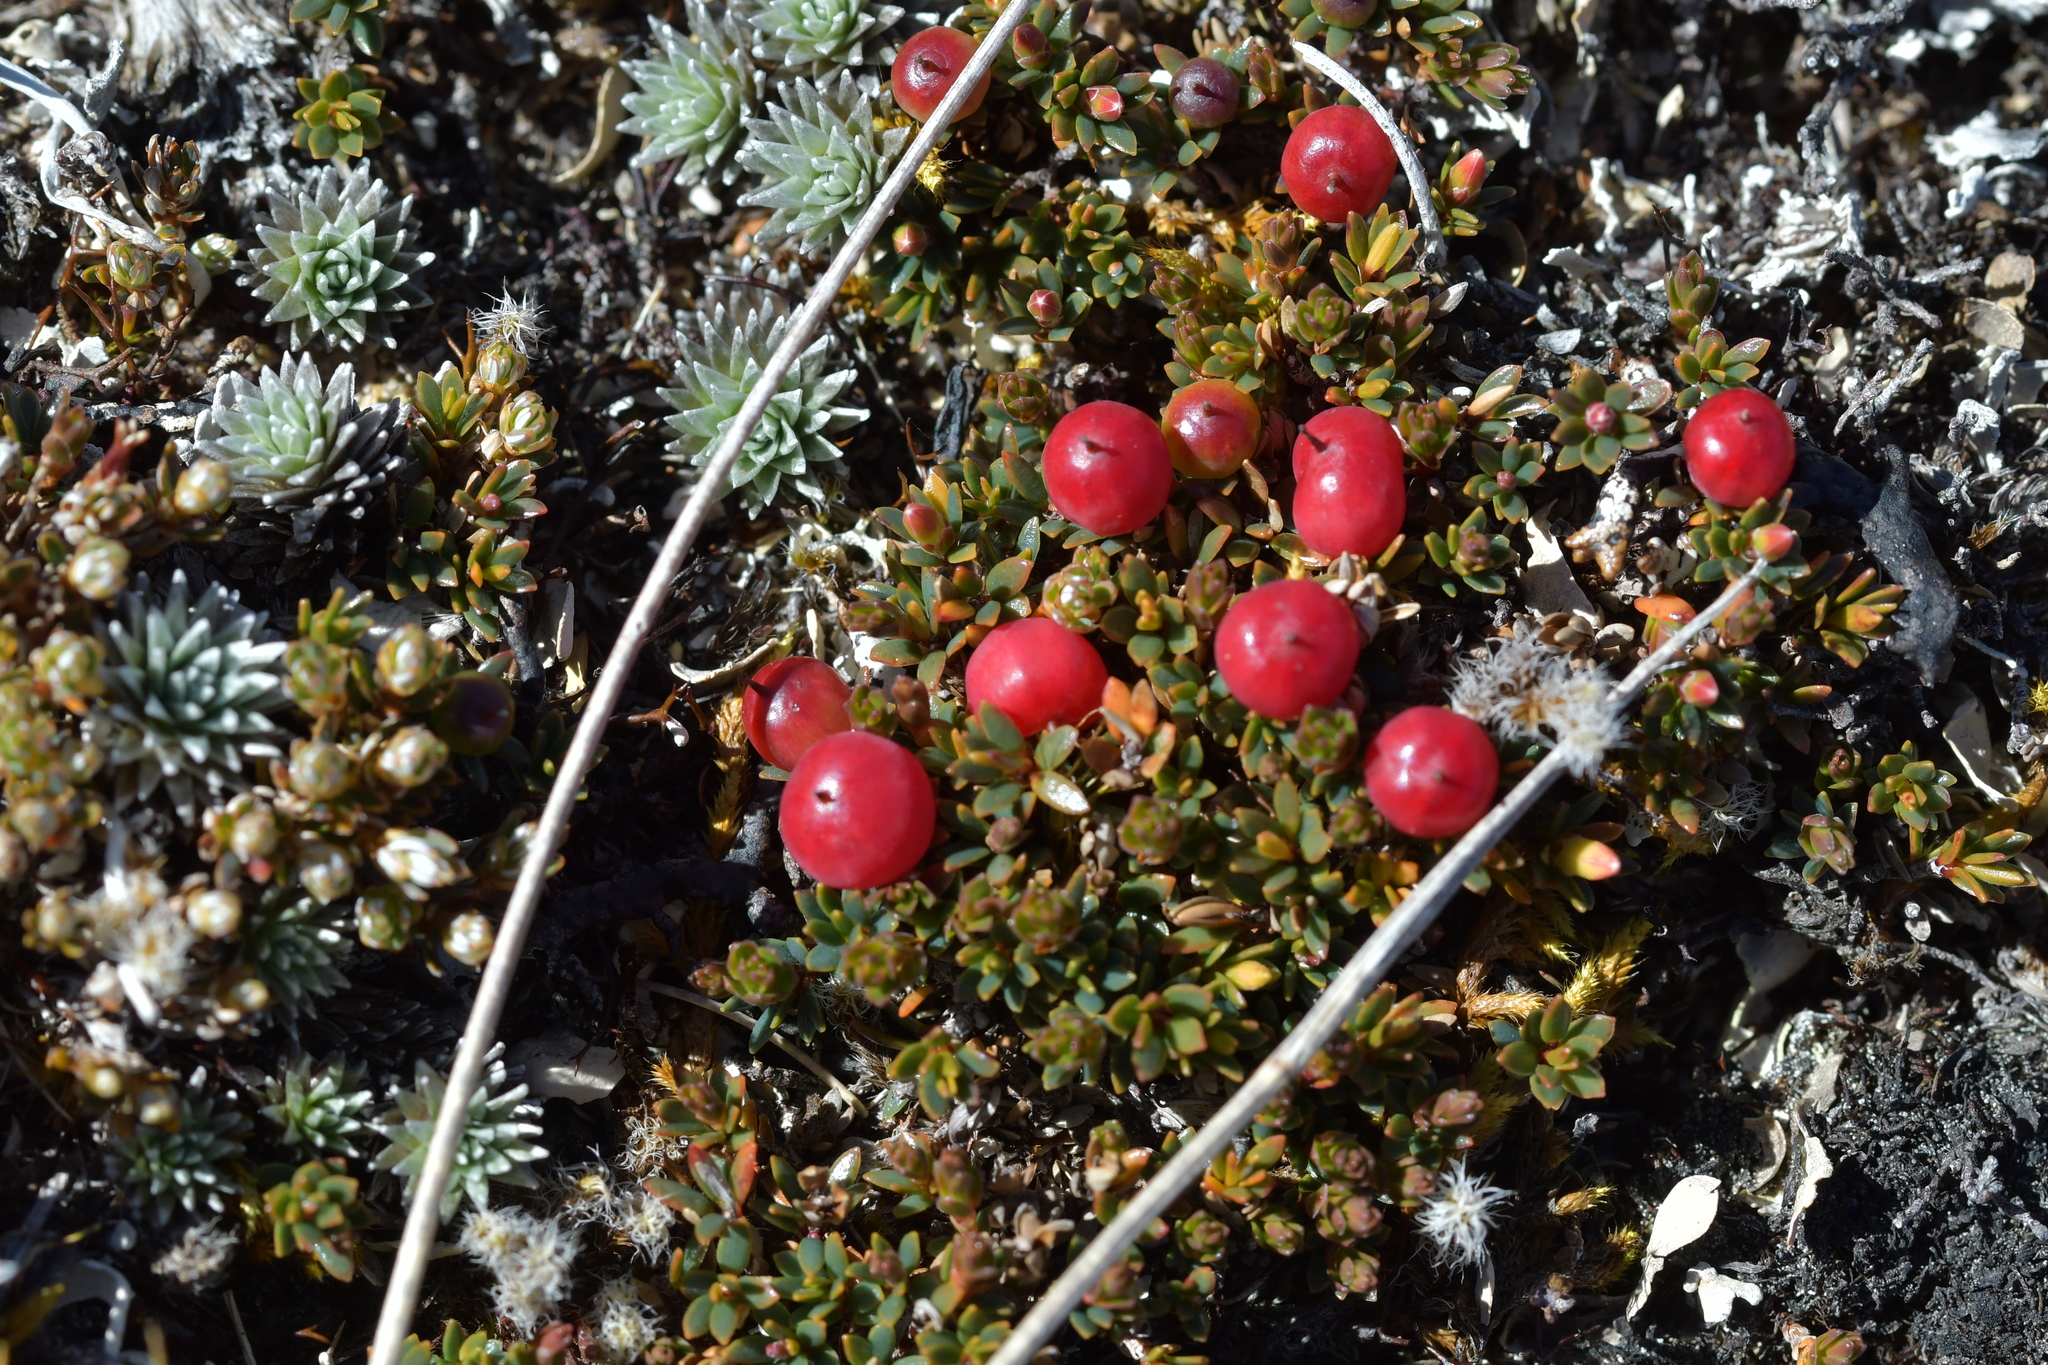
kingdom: Plantae
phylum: Tracheophyta
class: Magnoliopsida
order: Ericales
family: Ericaceae
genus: Pentachondra
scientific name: Pentachondra pumila
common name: Carpet-heath
